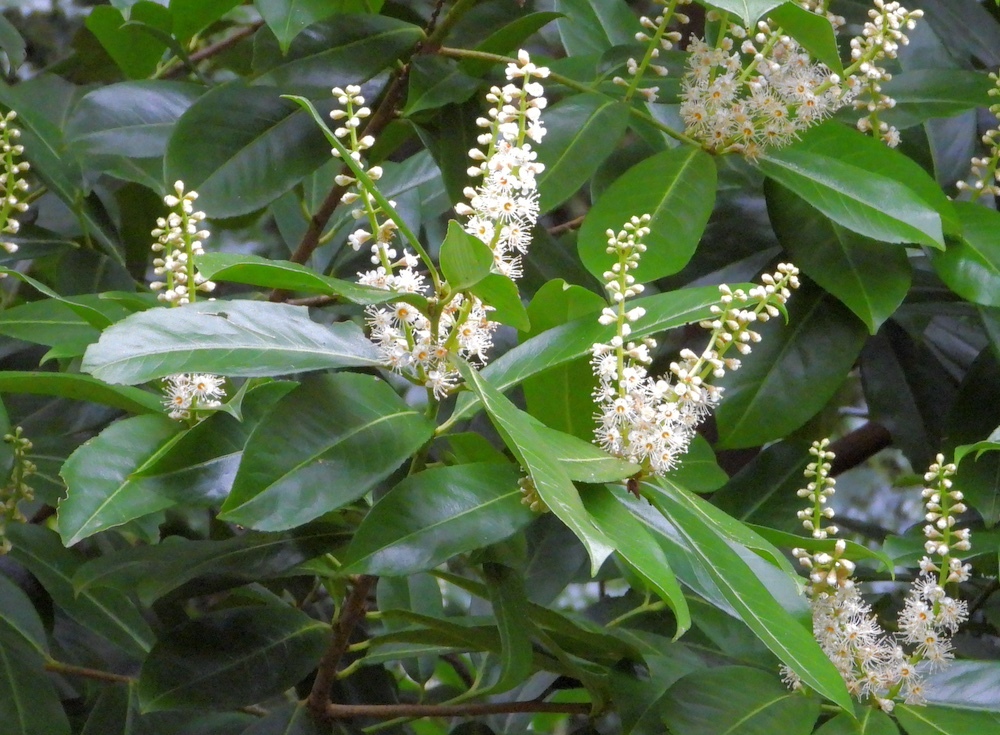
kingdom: Plantae
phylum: Tracheophyta
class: Magnoliopsida
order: Rosales
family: Rosaceae
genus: Prunus
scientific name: Prunus laurocerasus
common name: Cherry laurel
